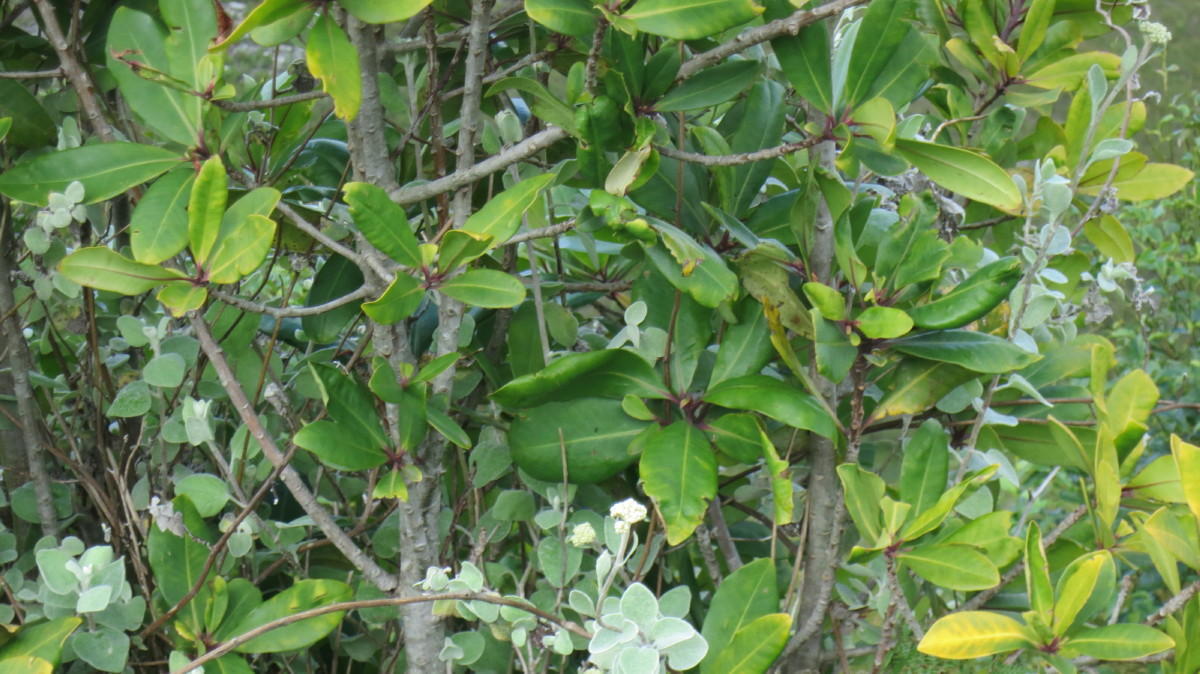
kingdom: Plantae
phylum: Tracheophyta
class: Magnoliopsida
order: Ericales
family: Primulaceae
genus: Myrsine
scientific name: Myrsine melanophloeos
